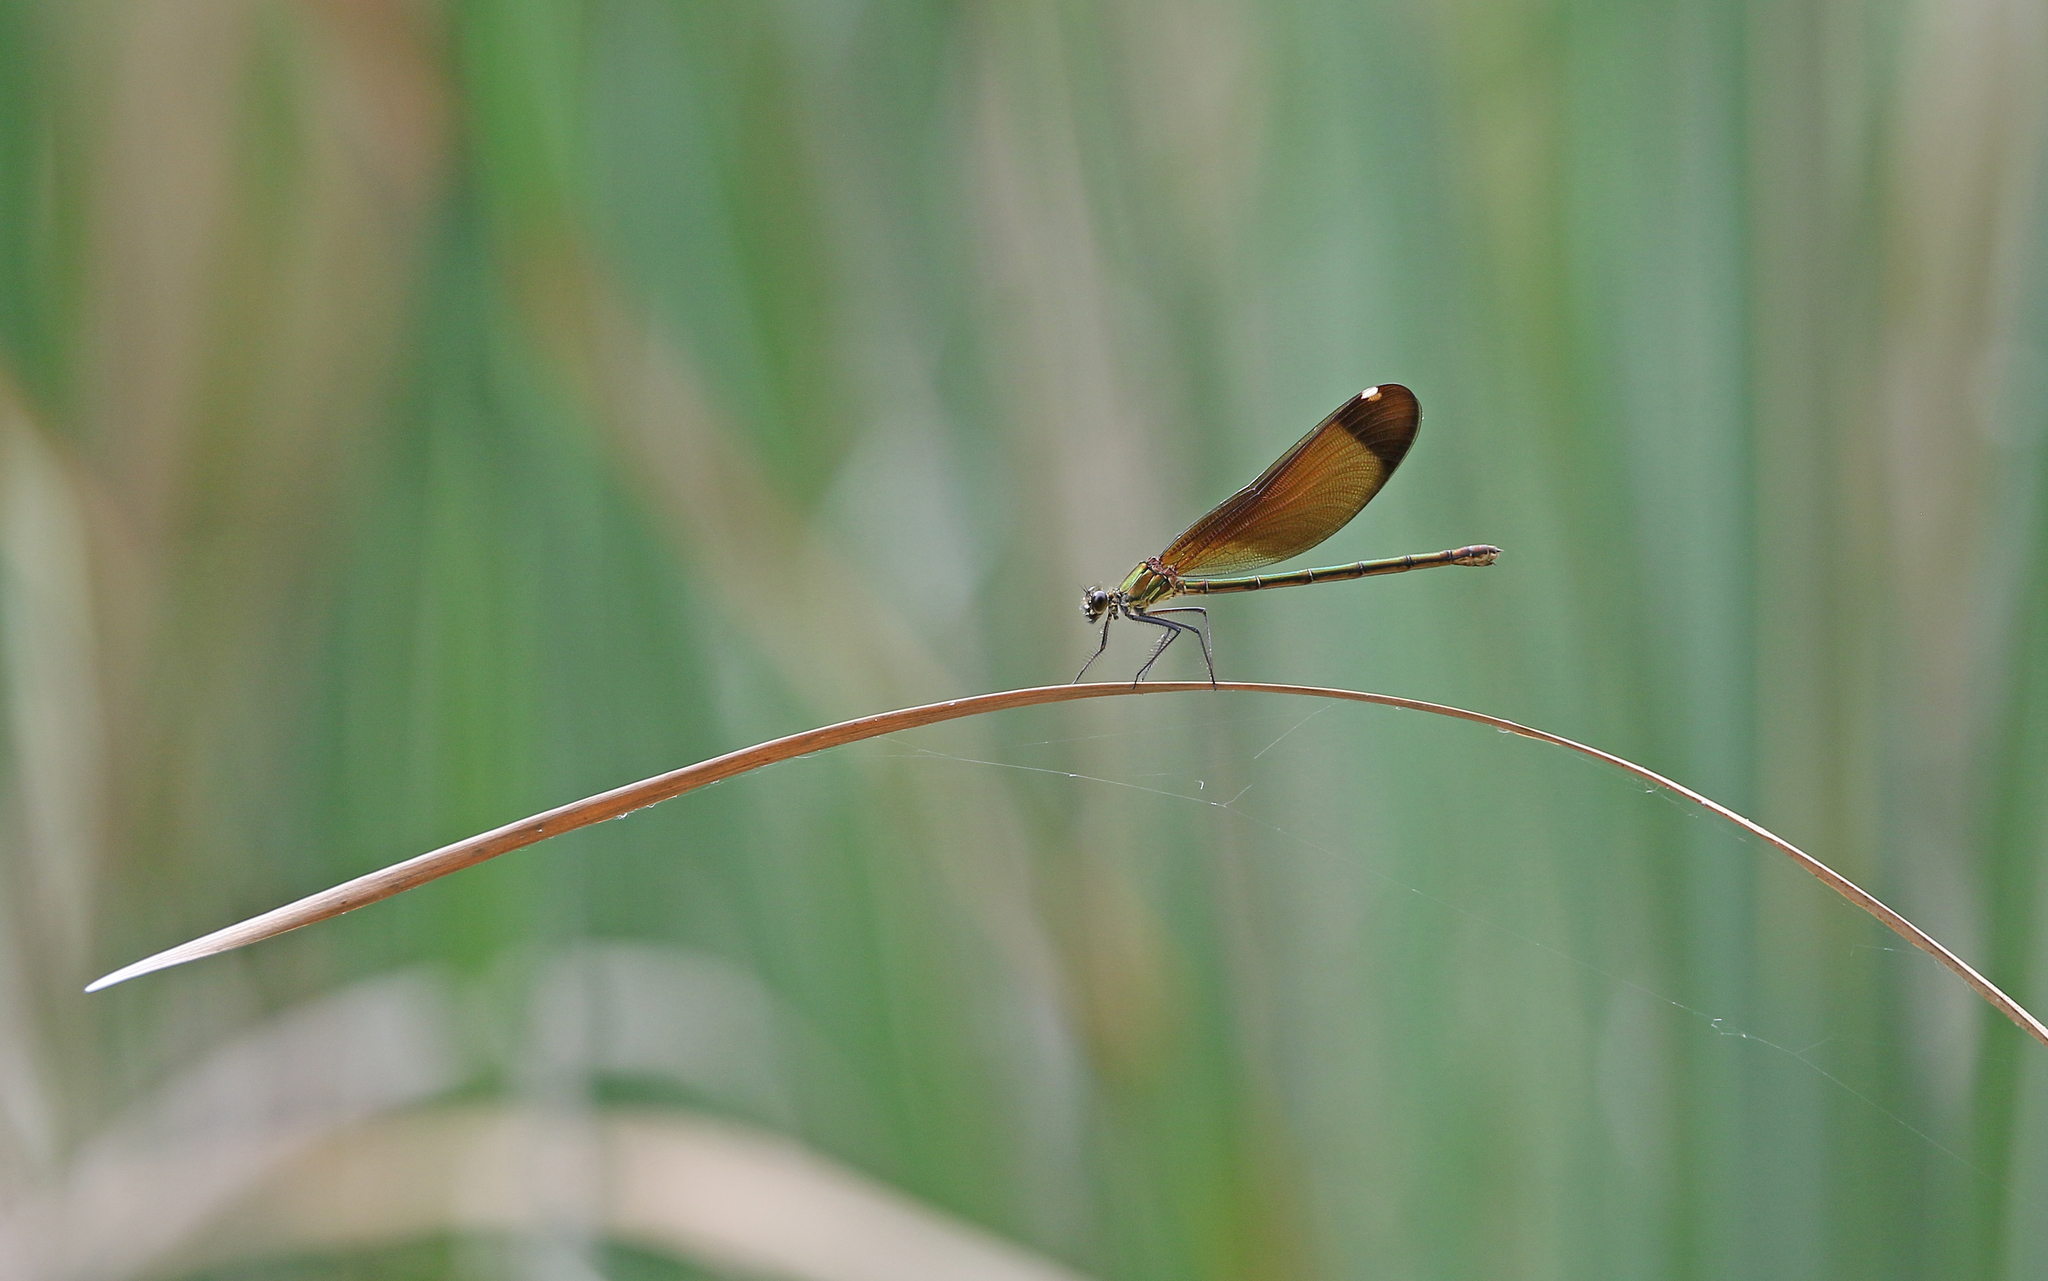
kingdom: Animalia
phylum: Arthropoda
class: Insecta
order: Odonata
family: Calopterygidae
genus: Calopteryx
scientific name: Calopteryx haemorrhoidalis
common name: Copper demoiselle
